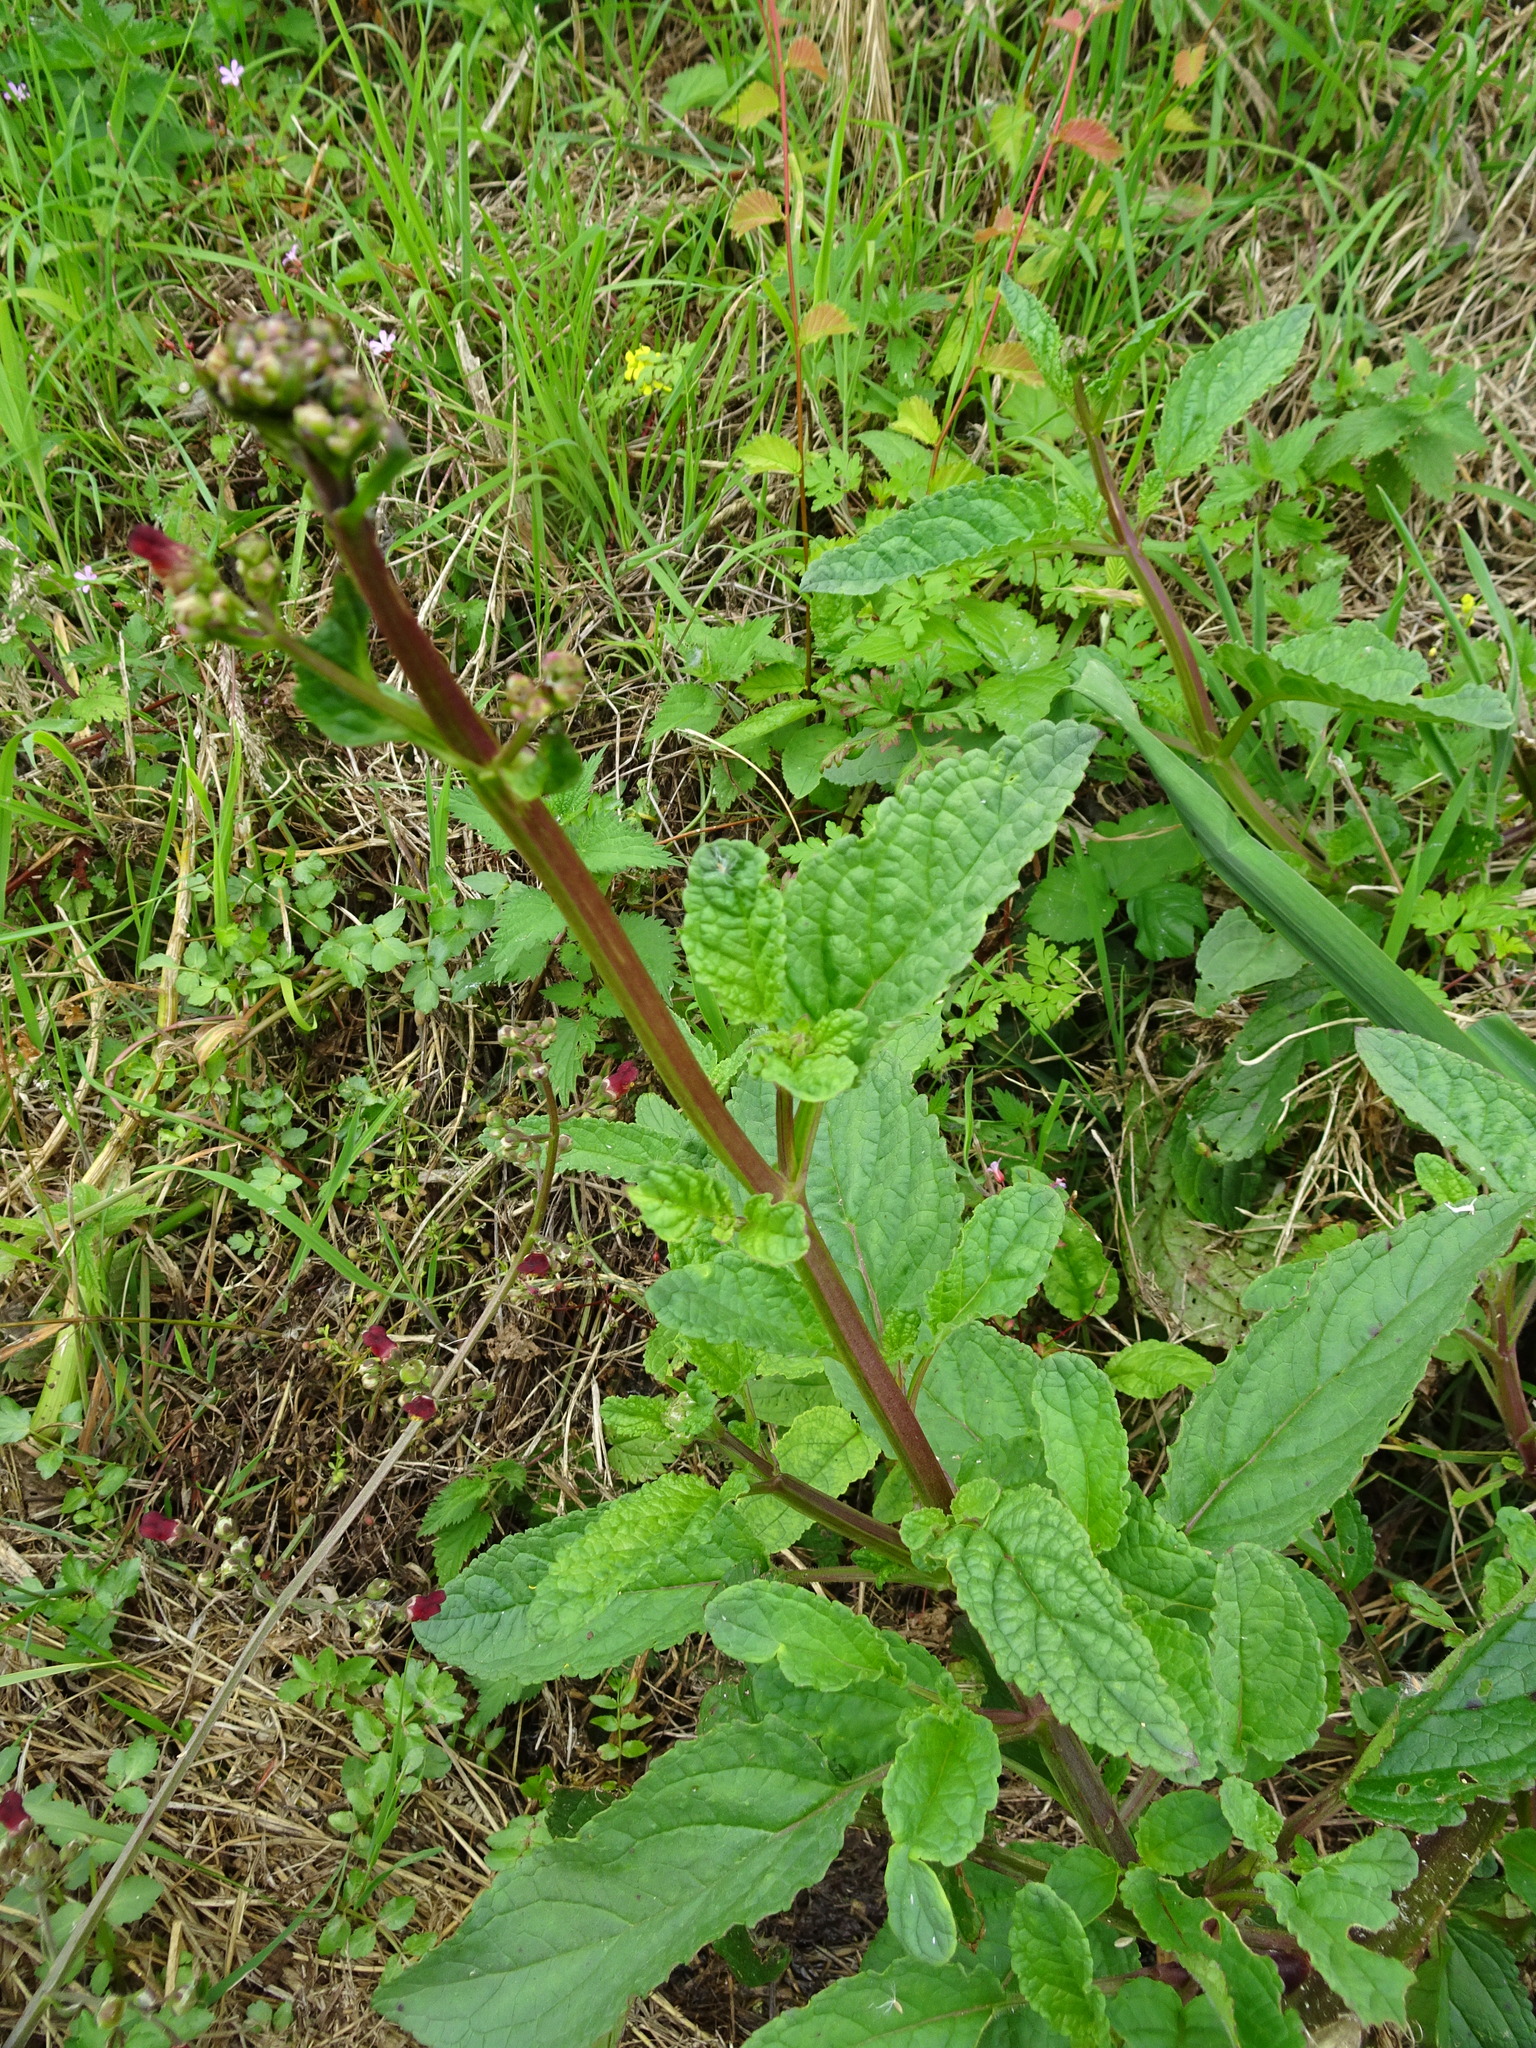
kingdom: Plantae
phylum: Tracheophyta
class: Magnoliopsida
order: Lamiales
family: Scrophulariaceae
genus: Scrophularia
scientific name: Scrophularia auriculata
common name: Water betony
